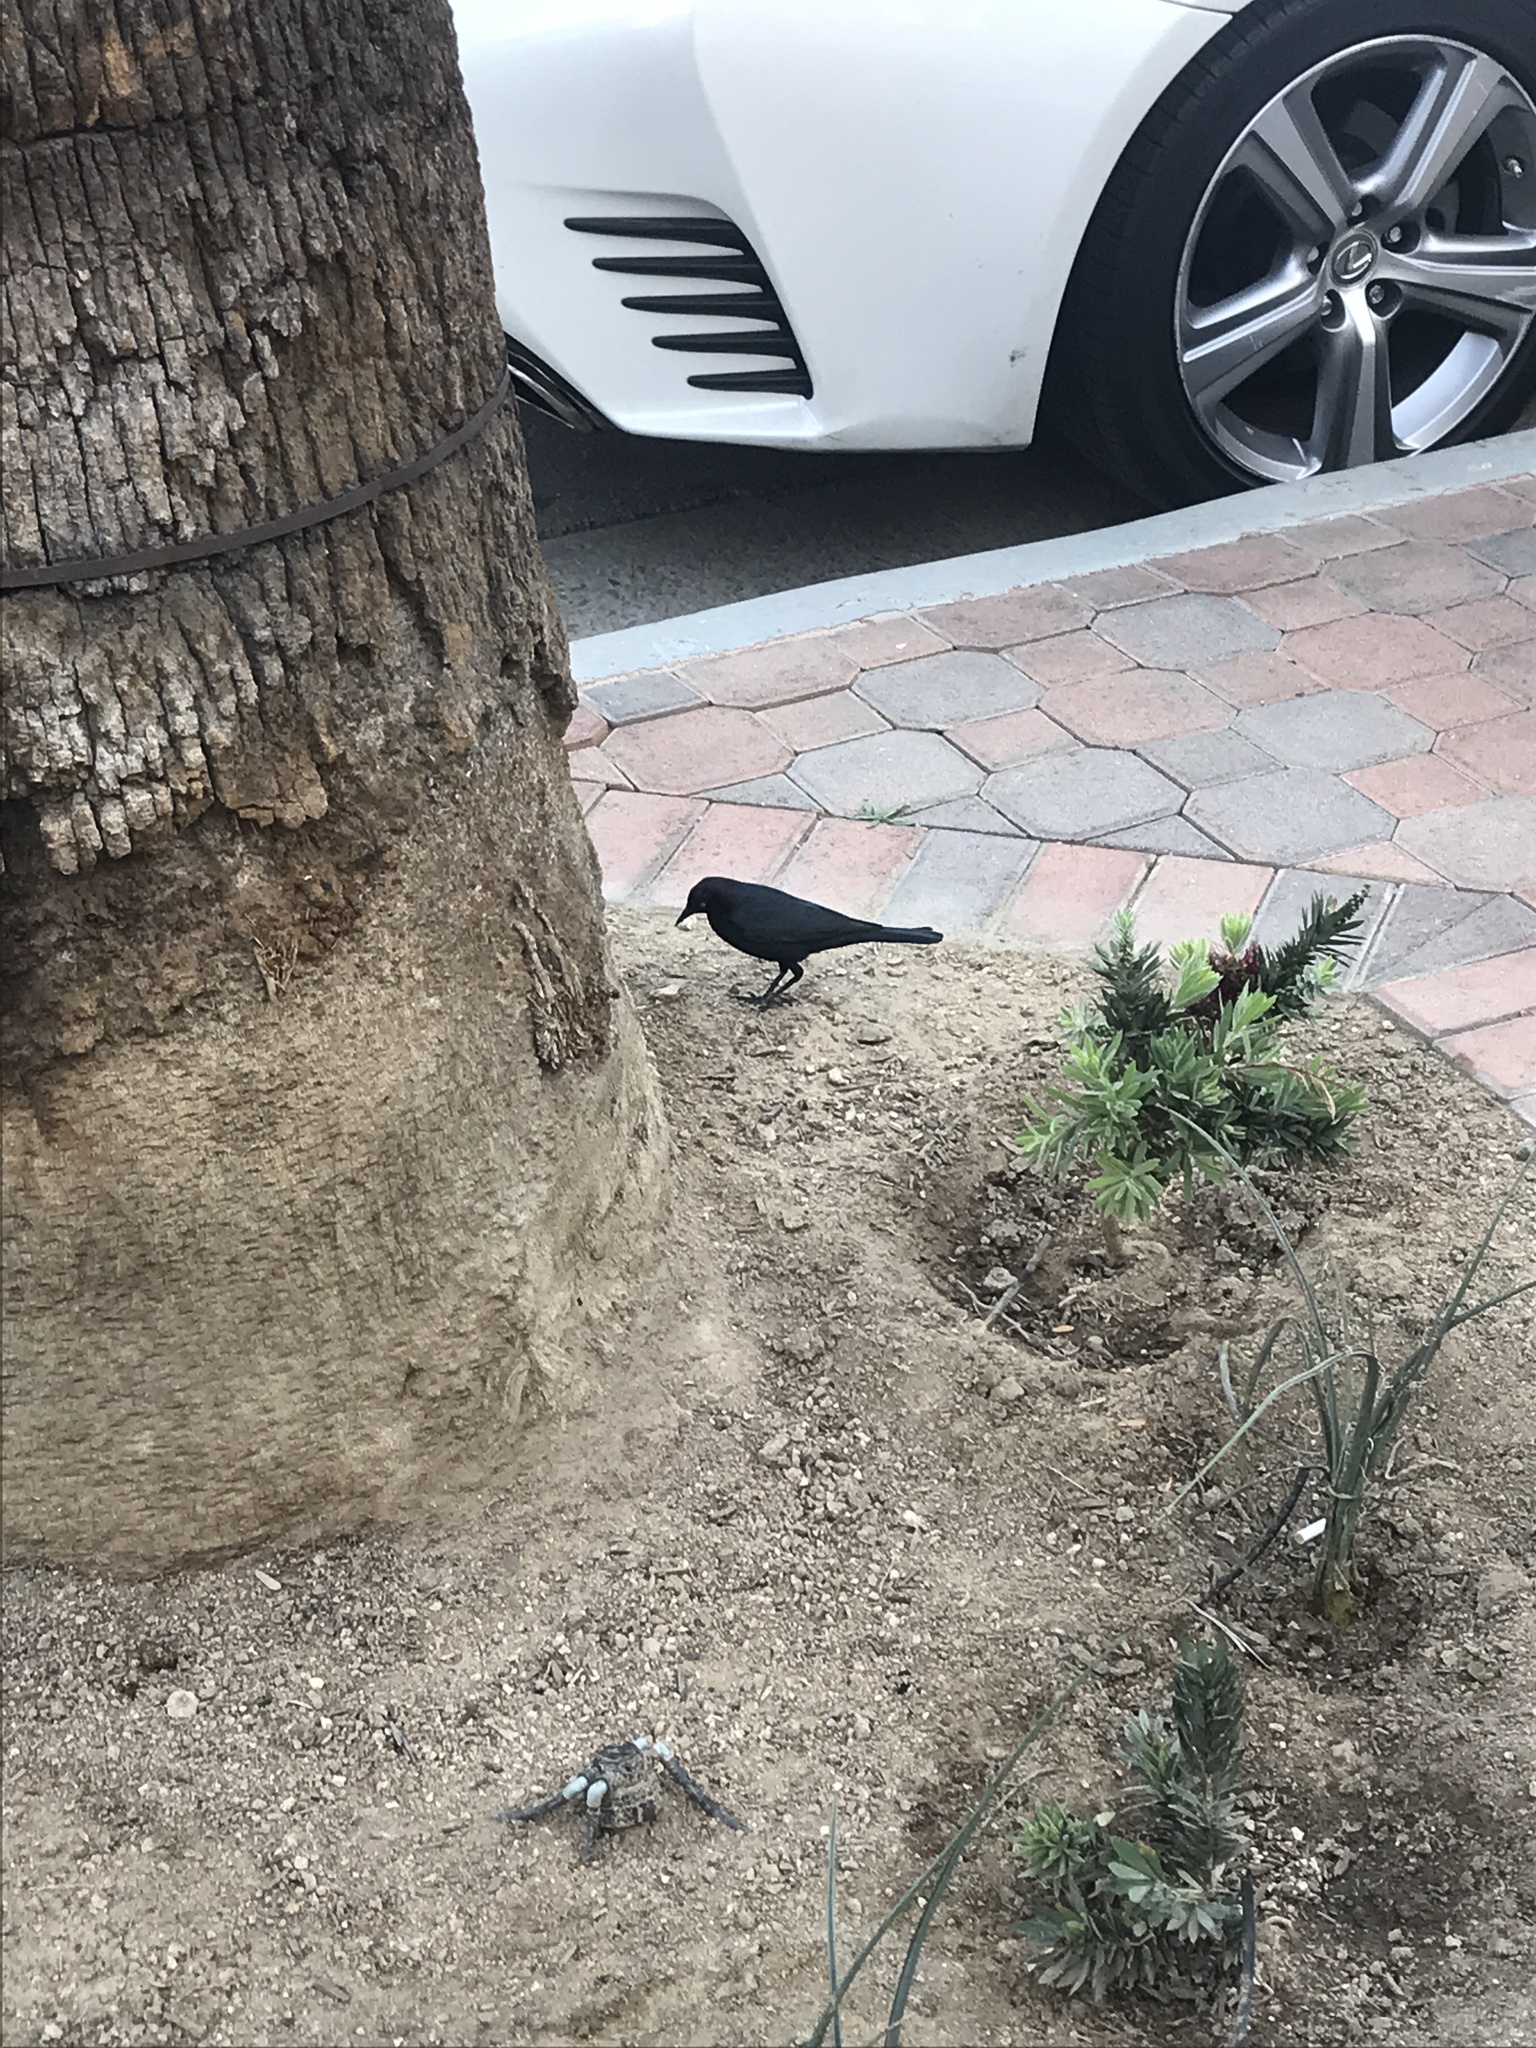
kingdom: Animalia
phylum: Chordata
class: Aves
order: Passeriformes
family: Icteridae
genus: Euphagus
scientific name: Euphagus cyanocephalus
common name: Brewer's blackbird
